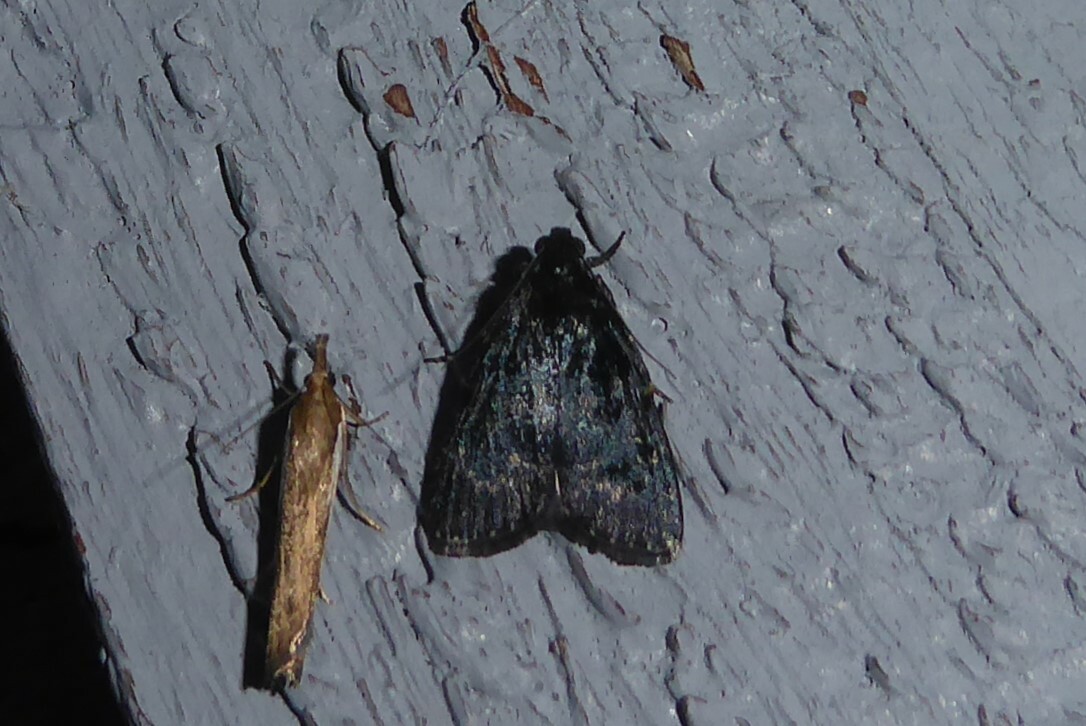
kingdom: Animalia
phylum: Arthropoda
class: Insecta
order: Lepidoptera
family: Pyralidae
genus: Stericta
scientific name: Stericta carbonalis
